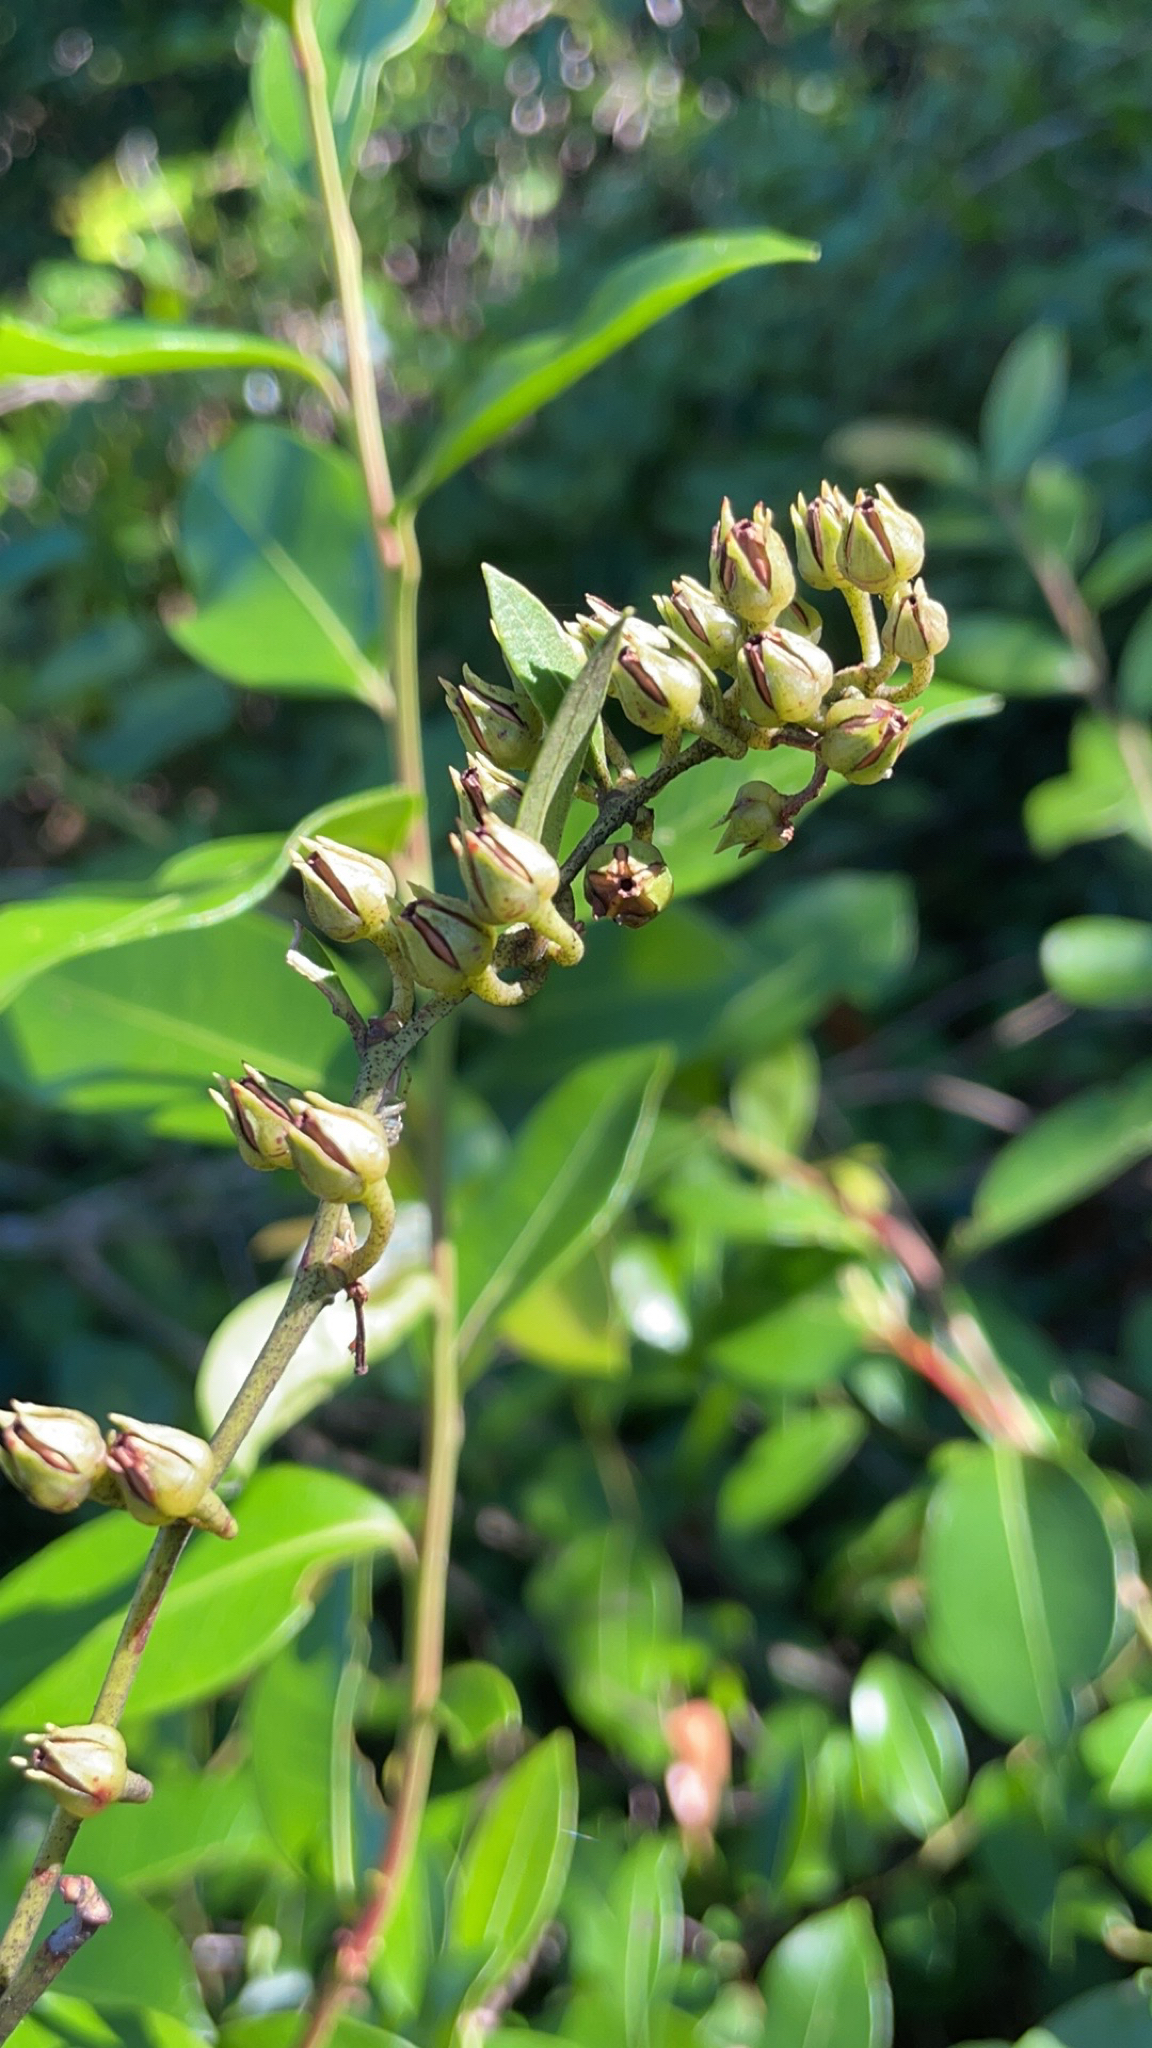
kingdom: Plantae
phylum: Tracheophyta
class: Magnoliopsida
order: Ericales
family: Ericaceae
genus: Lyonia
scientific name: Lyonia lucida
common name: Fetterbush
